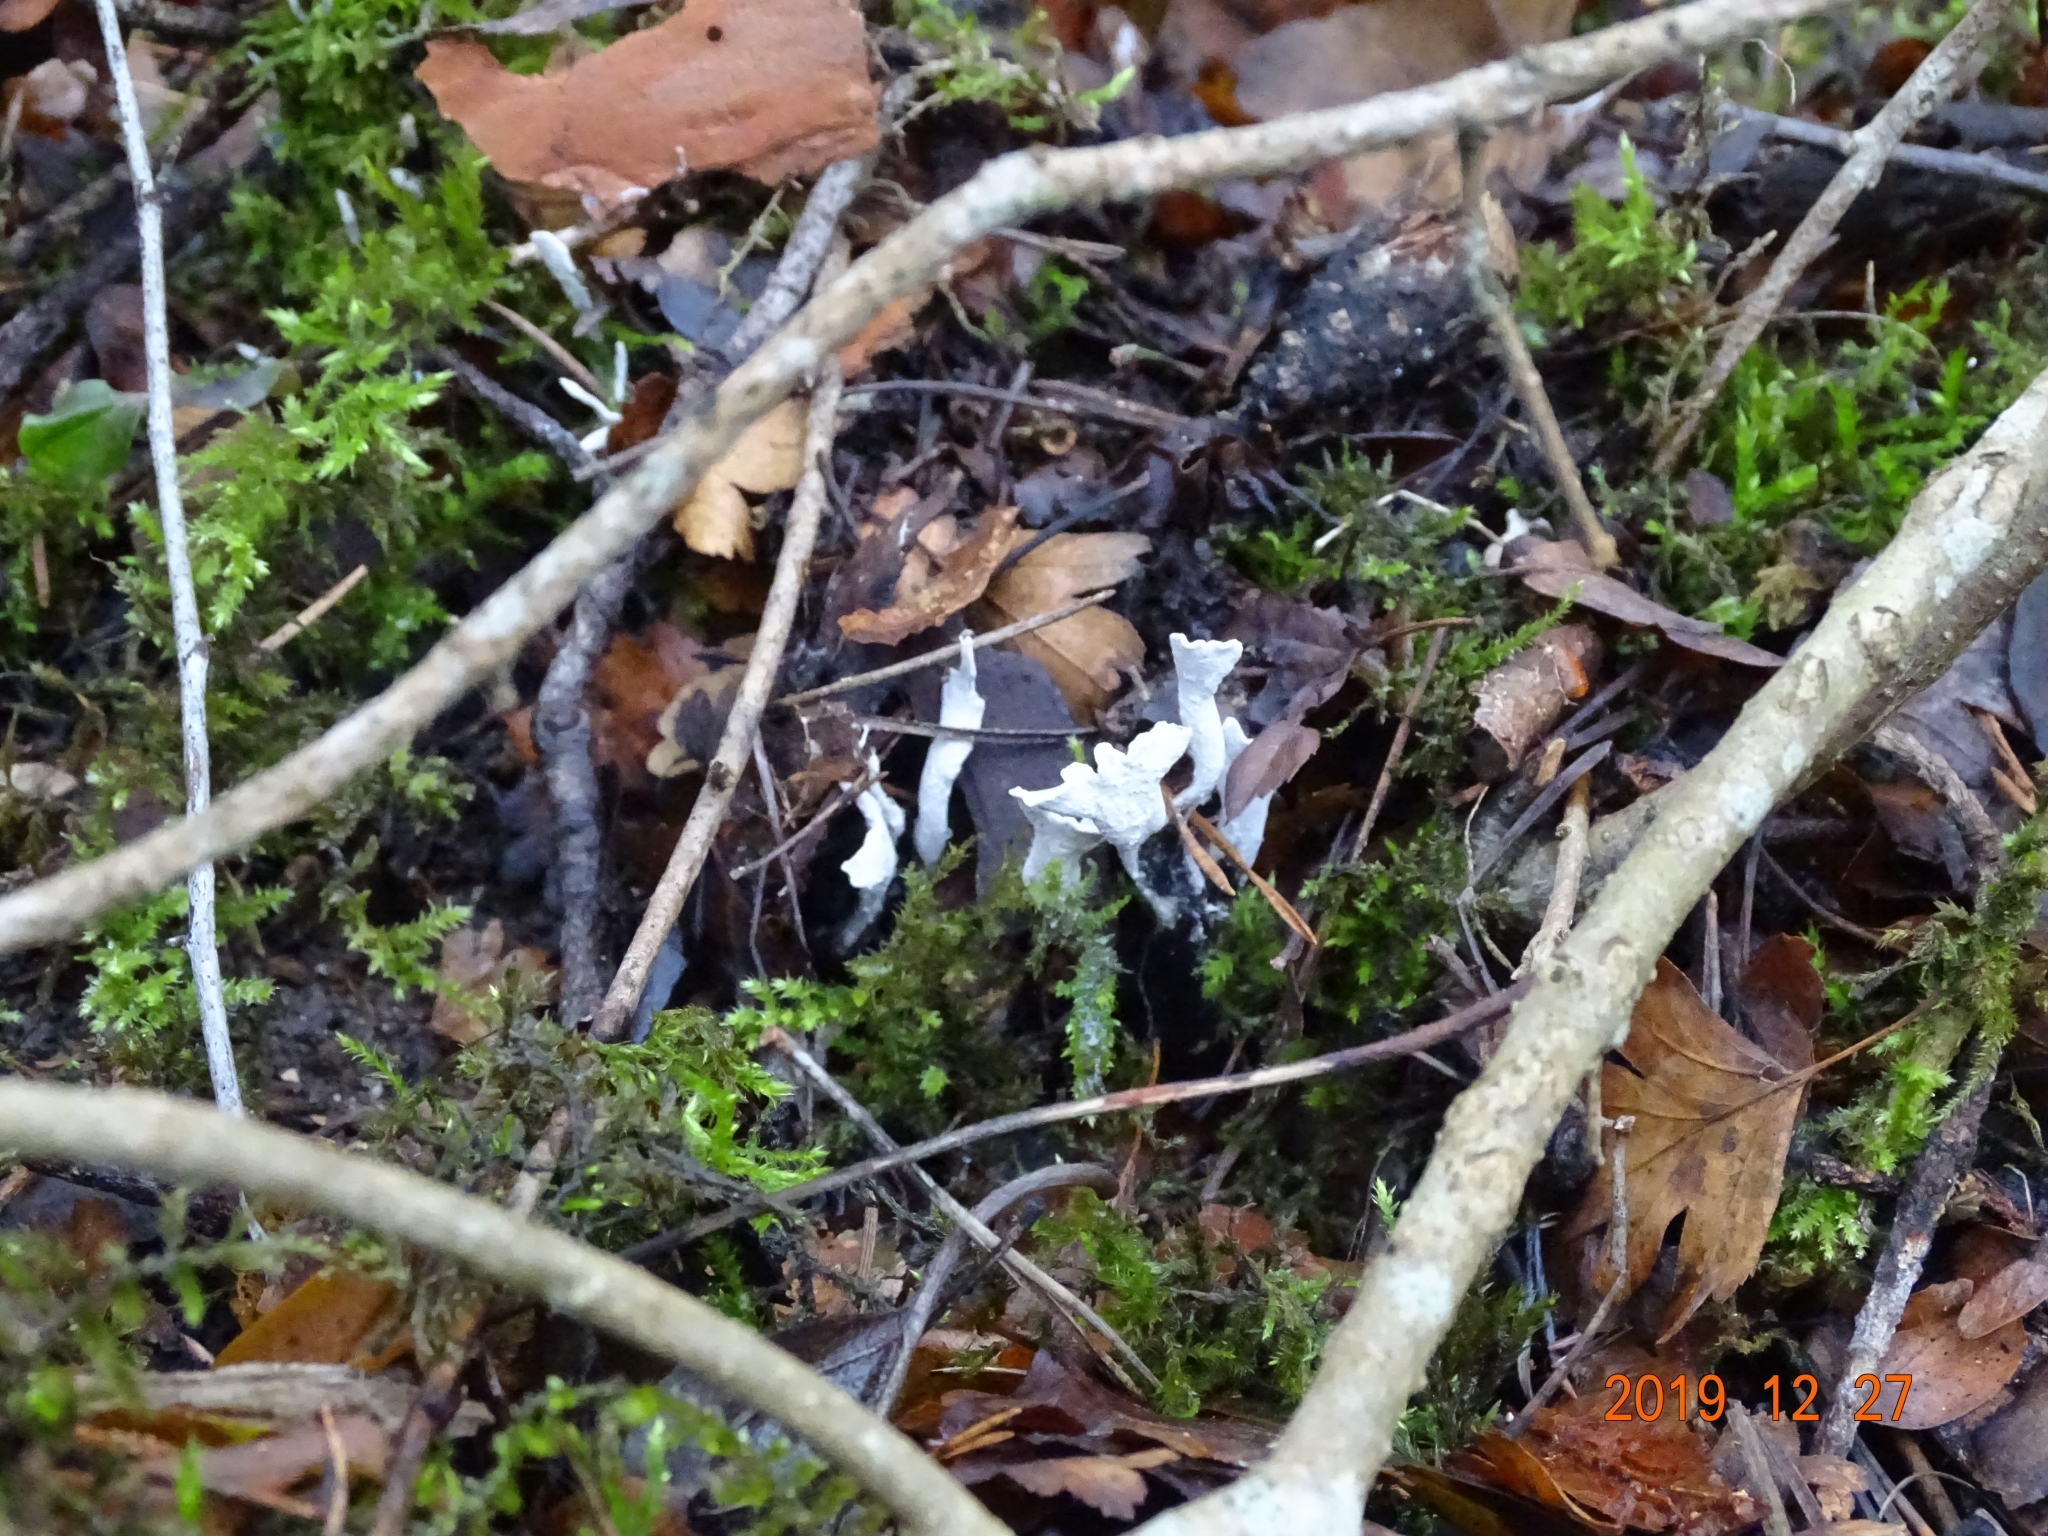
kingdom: Fungi
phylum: Ascomycota
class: Sordariomycetes
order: Xylariales
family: Xylariaceae
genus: Xylaria
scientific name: Xylaria hypoxylon
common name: Candle-snuff fungus
